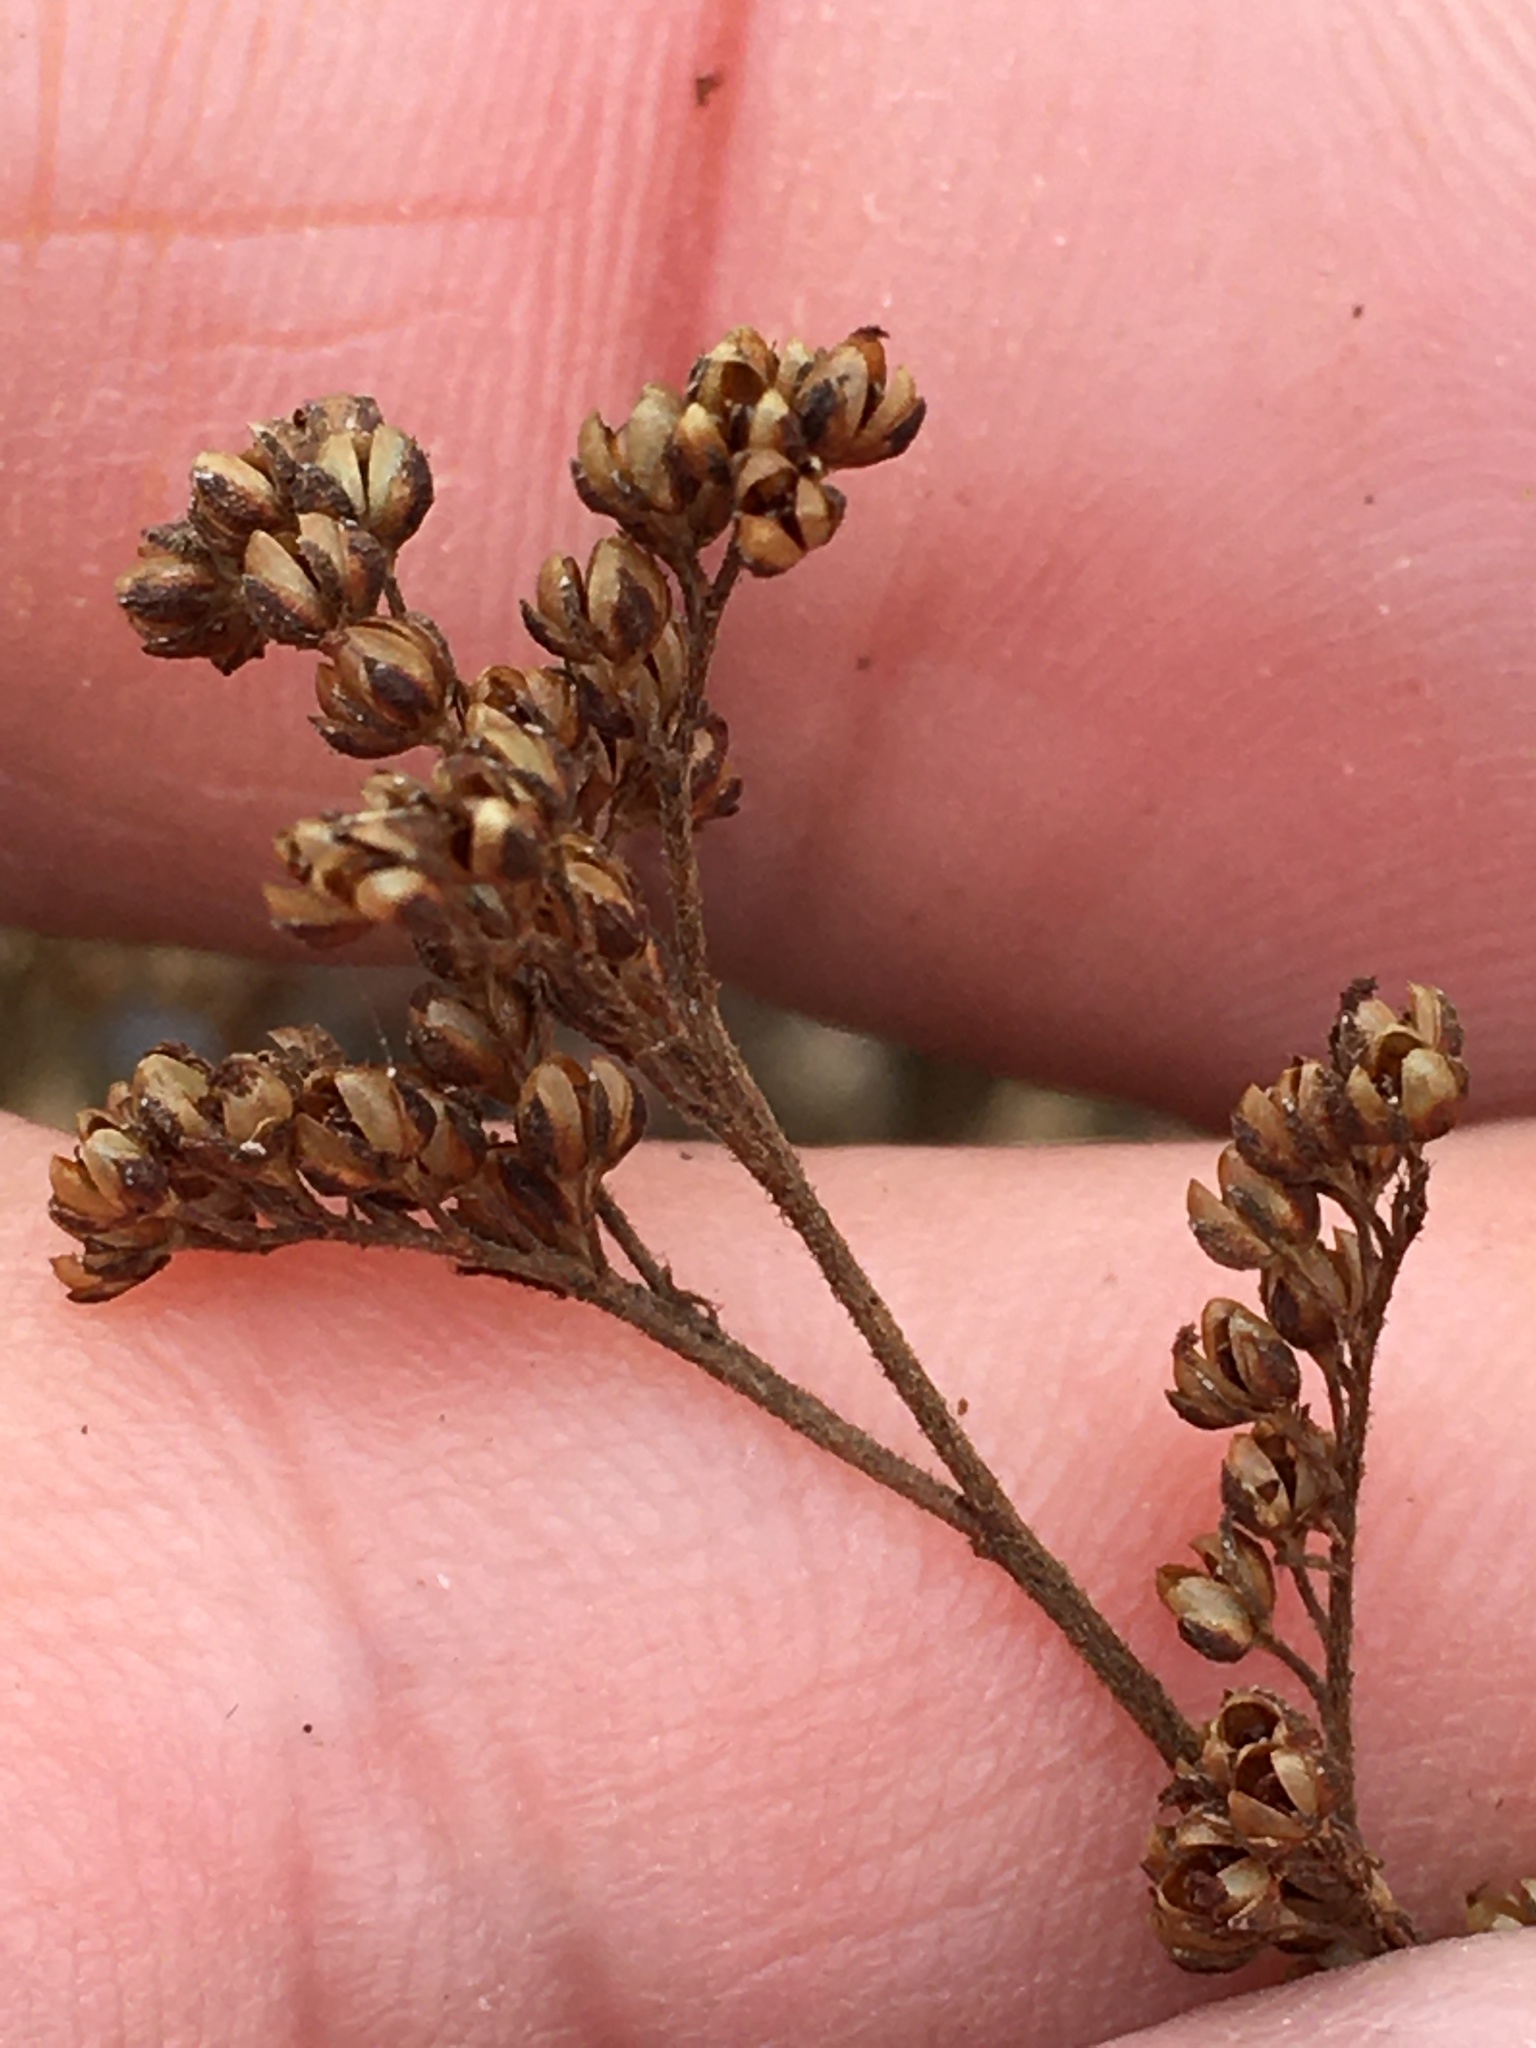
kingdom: Plantae
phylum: Tracheophyta
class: Magnoliopsida
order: Malvales
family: Cistaceae
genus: Lechea
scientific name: Lechea mucronata
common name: Hairy pinweed
